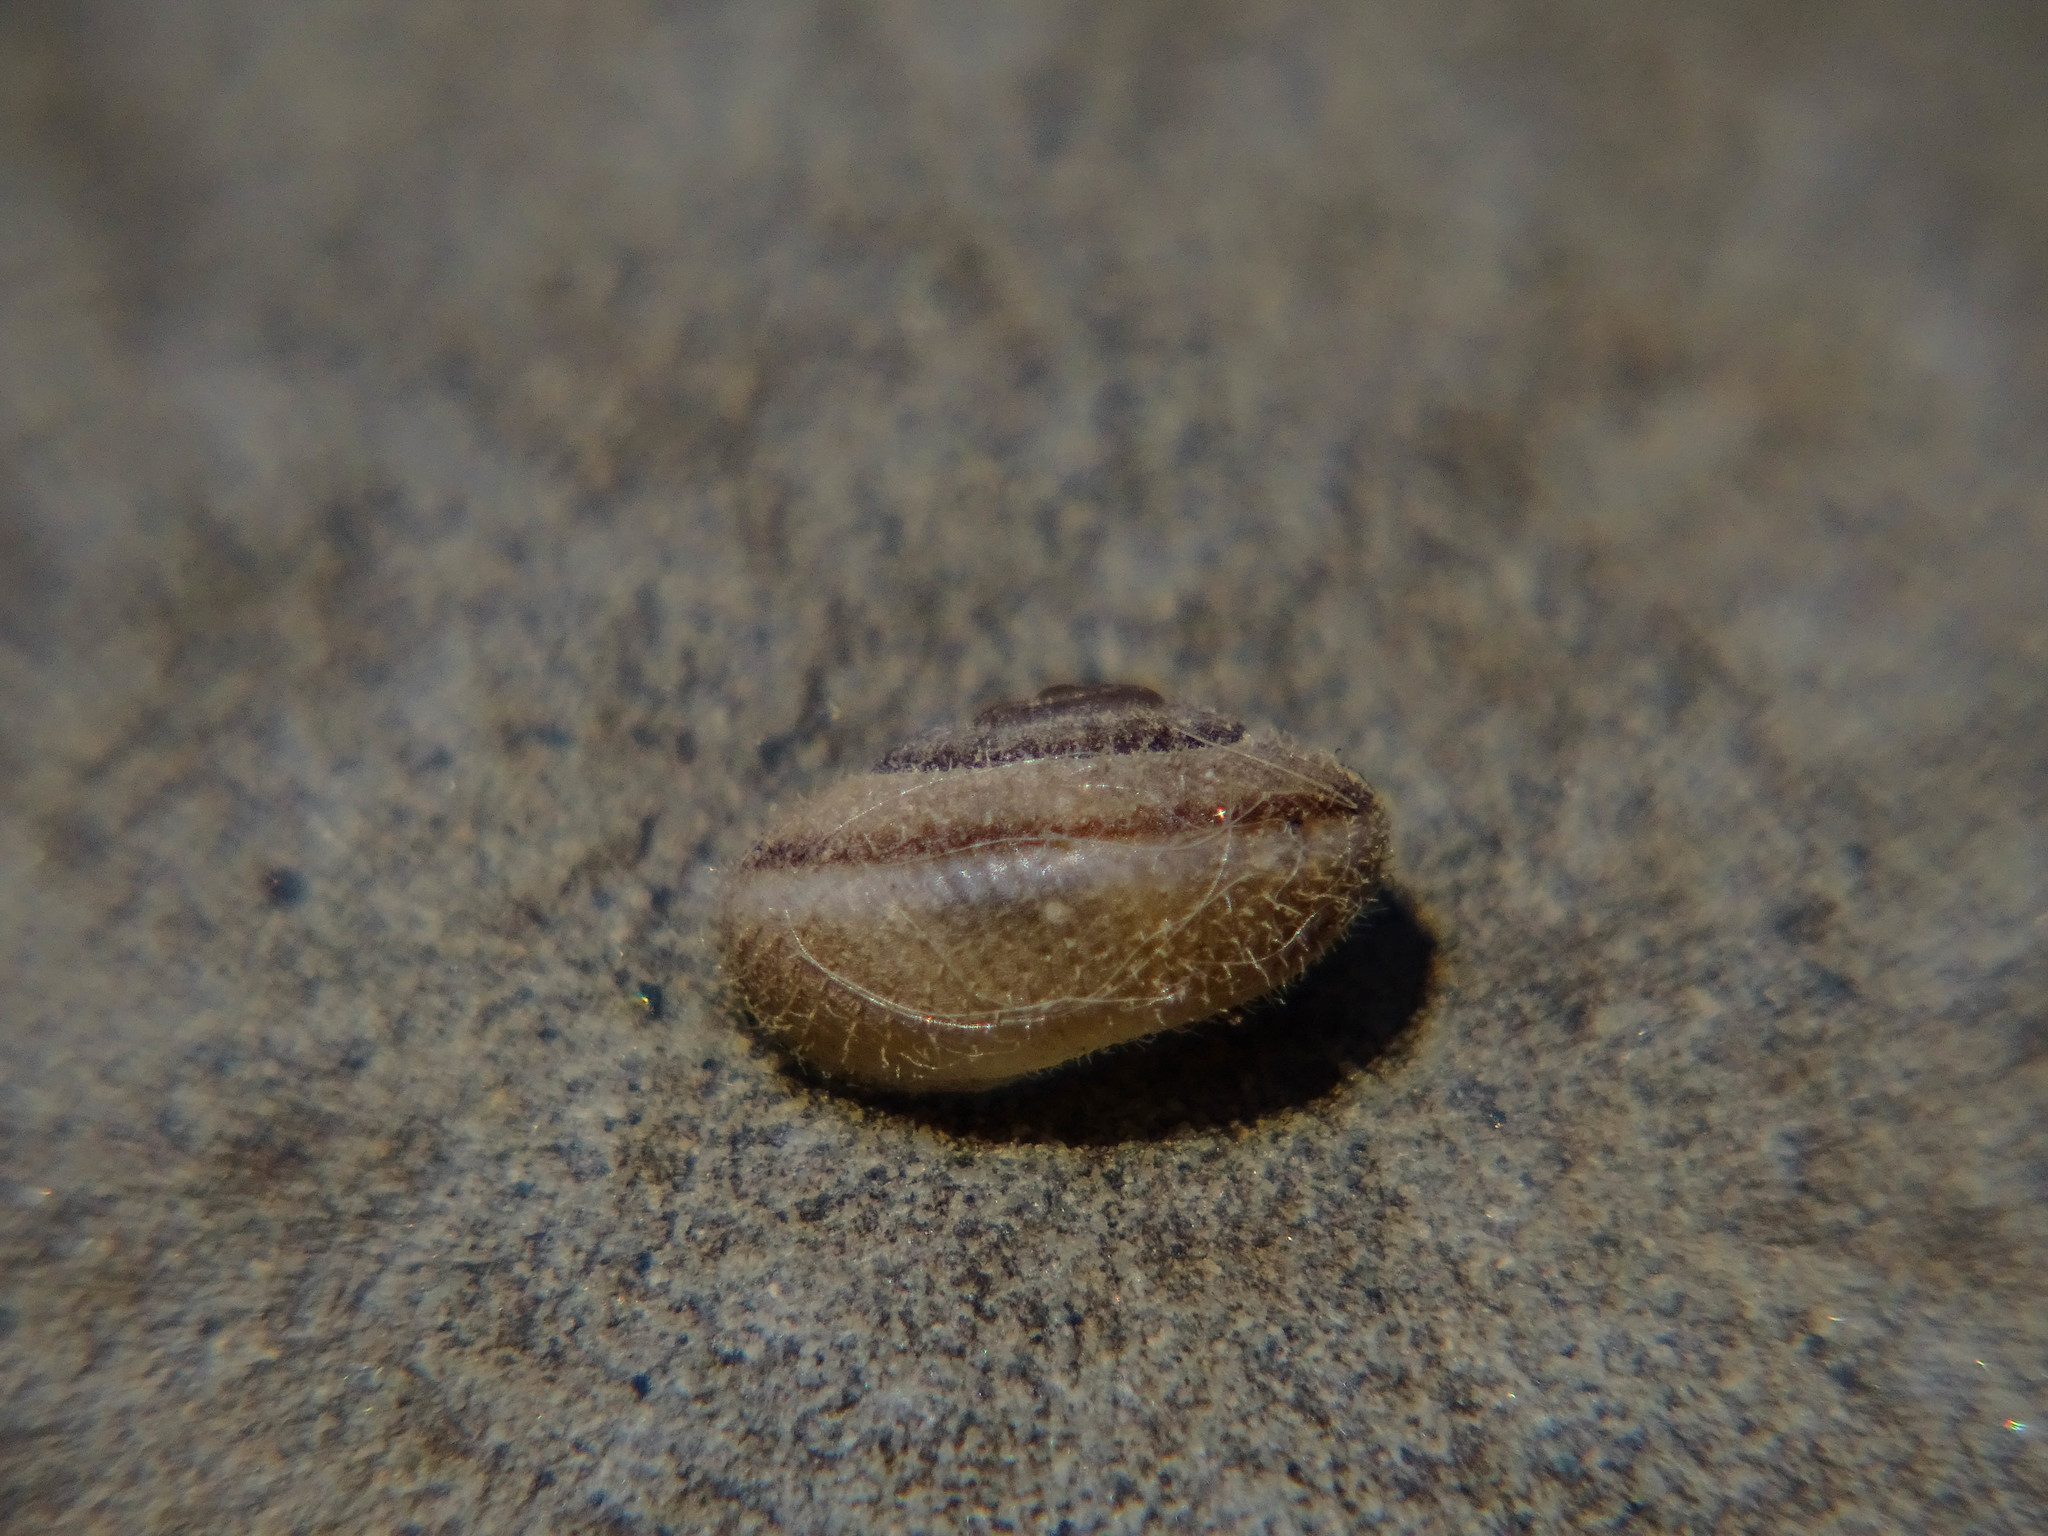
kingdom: Animalia
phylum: Mollusca
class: Gastropoda
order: Stylommatophora
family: Hygromiidae
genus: Metafruticicola
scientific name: Metafruticicola pellita
